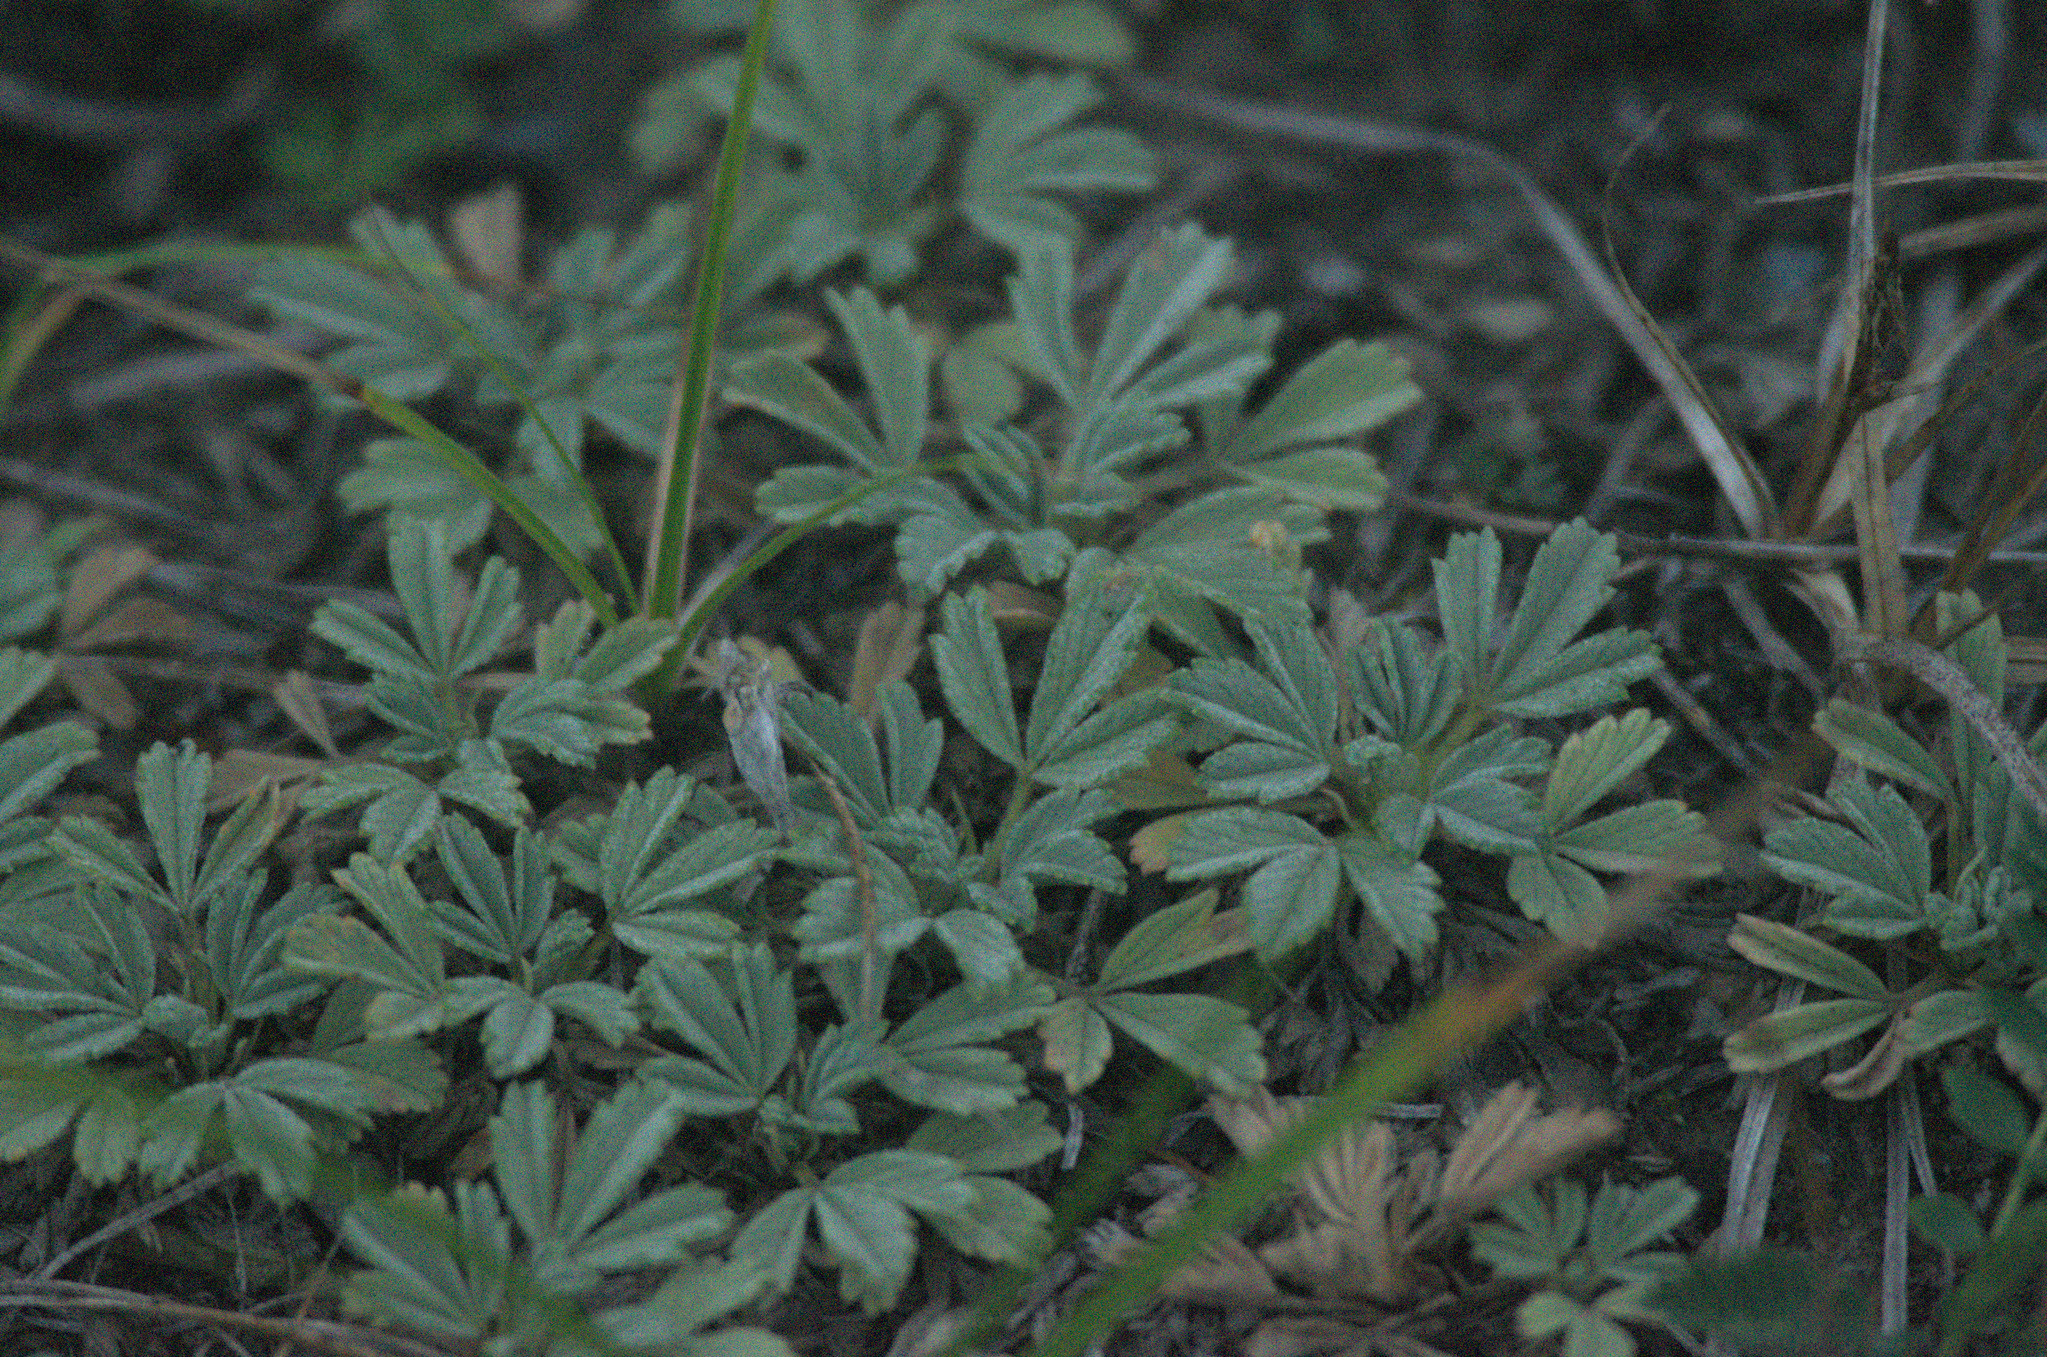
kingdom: Plantae
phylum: Tracheophyta
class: Magnoliopsida
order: Rosales
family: Rosaceae
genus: Potentilla
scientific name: Potentilla acaulis
